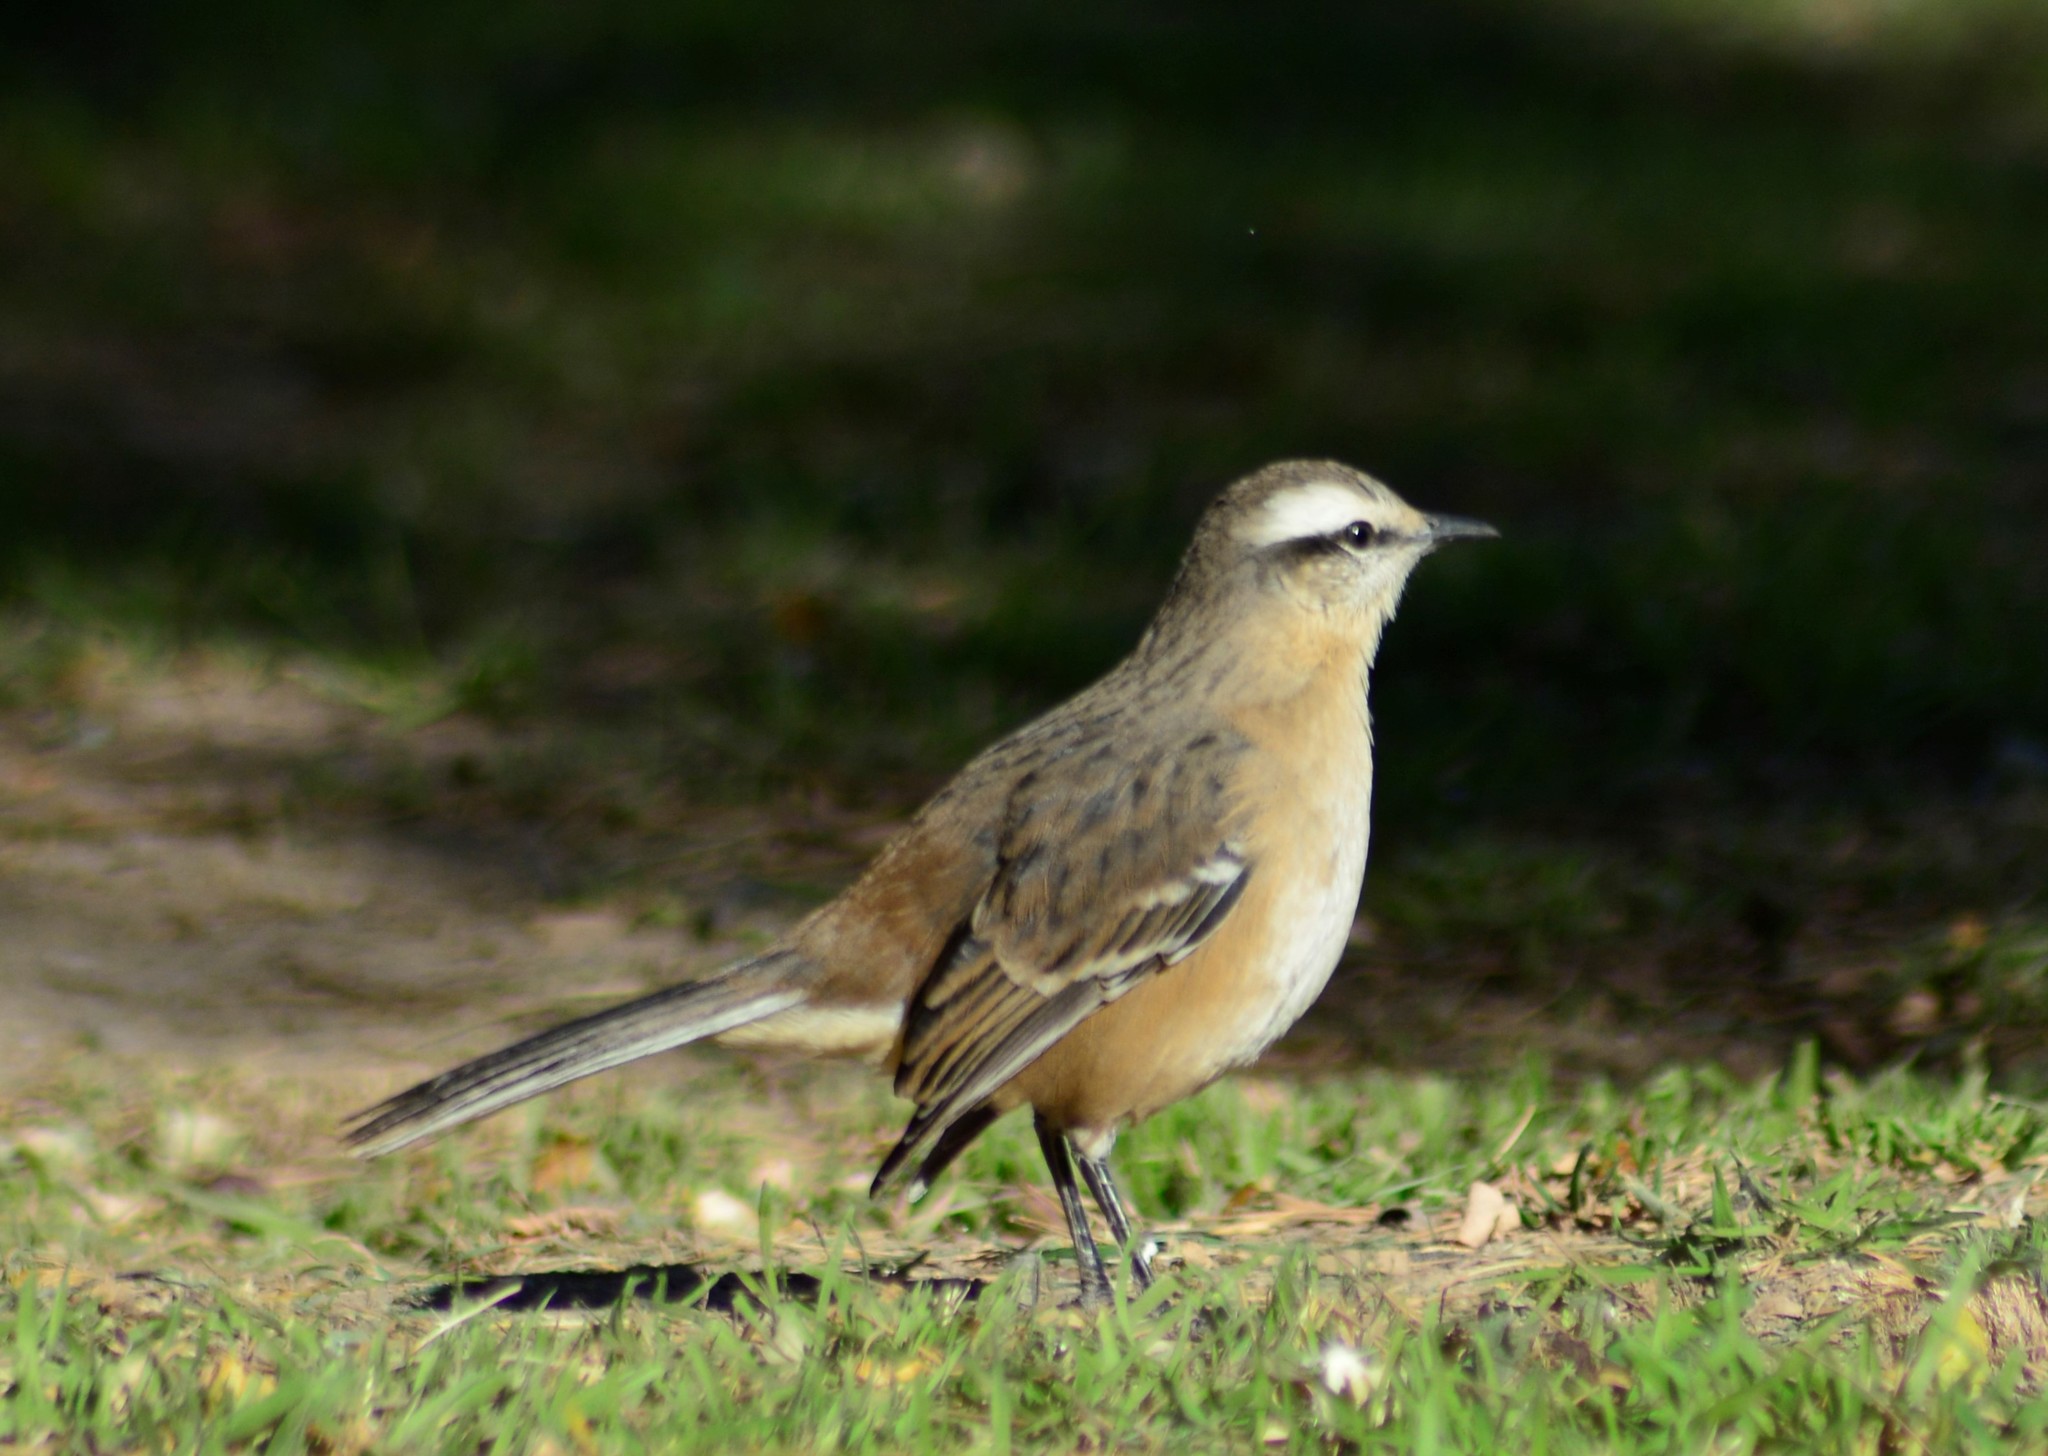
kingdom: Animalia
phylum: Chordata
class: Aves
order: Passeriformes
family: Mimidae
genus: Mimus
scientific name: Mimus saturninus
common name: Chalk-browed mockingbird
